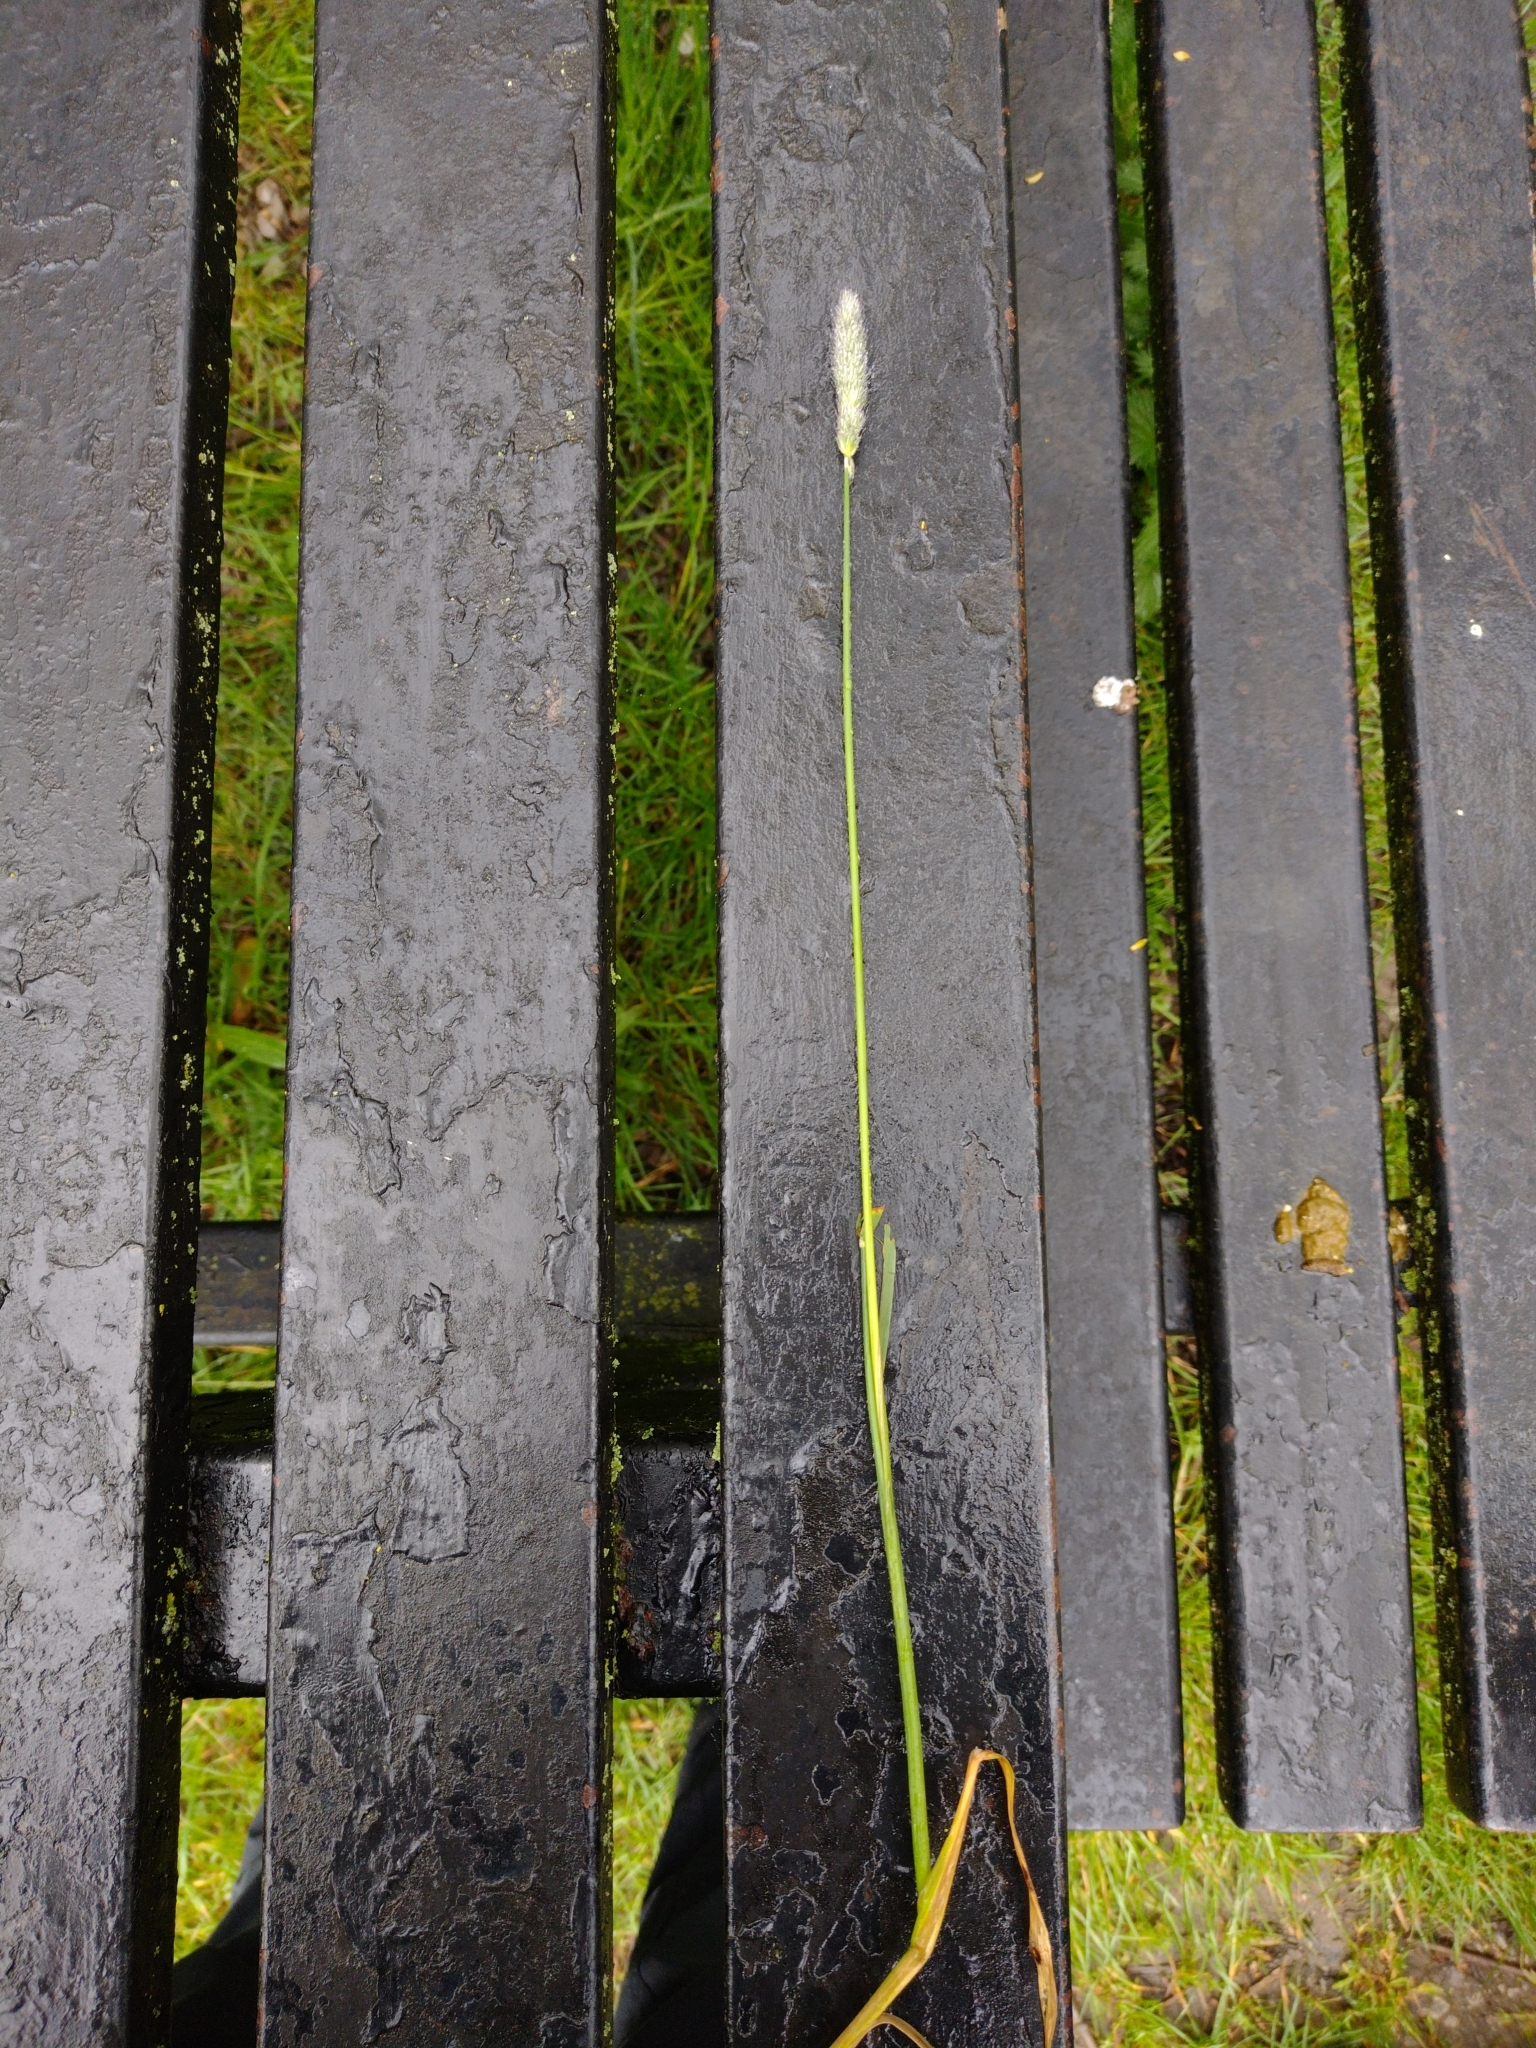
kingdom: Plantae
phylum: Tracheophyta
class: Liliopsida
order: Poales
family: Poaceae
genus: Alopecurus
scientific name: Alopecurus pratensis
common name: Meadow foxtail
